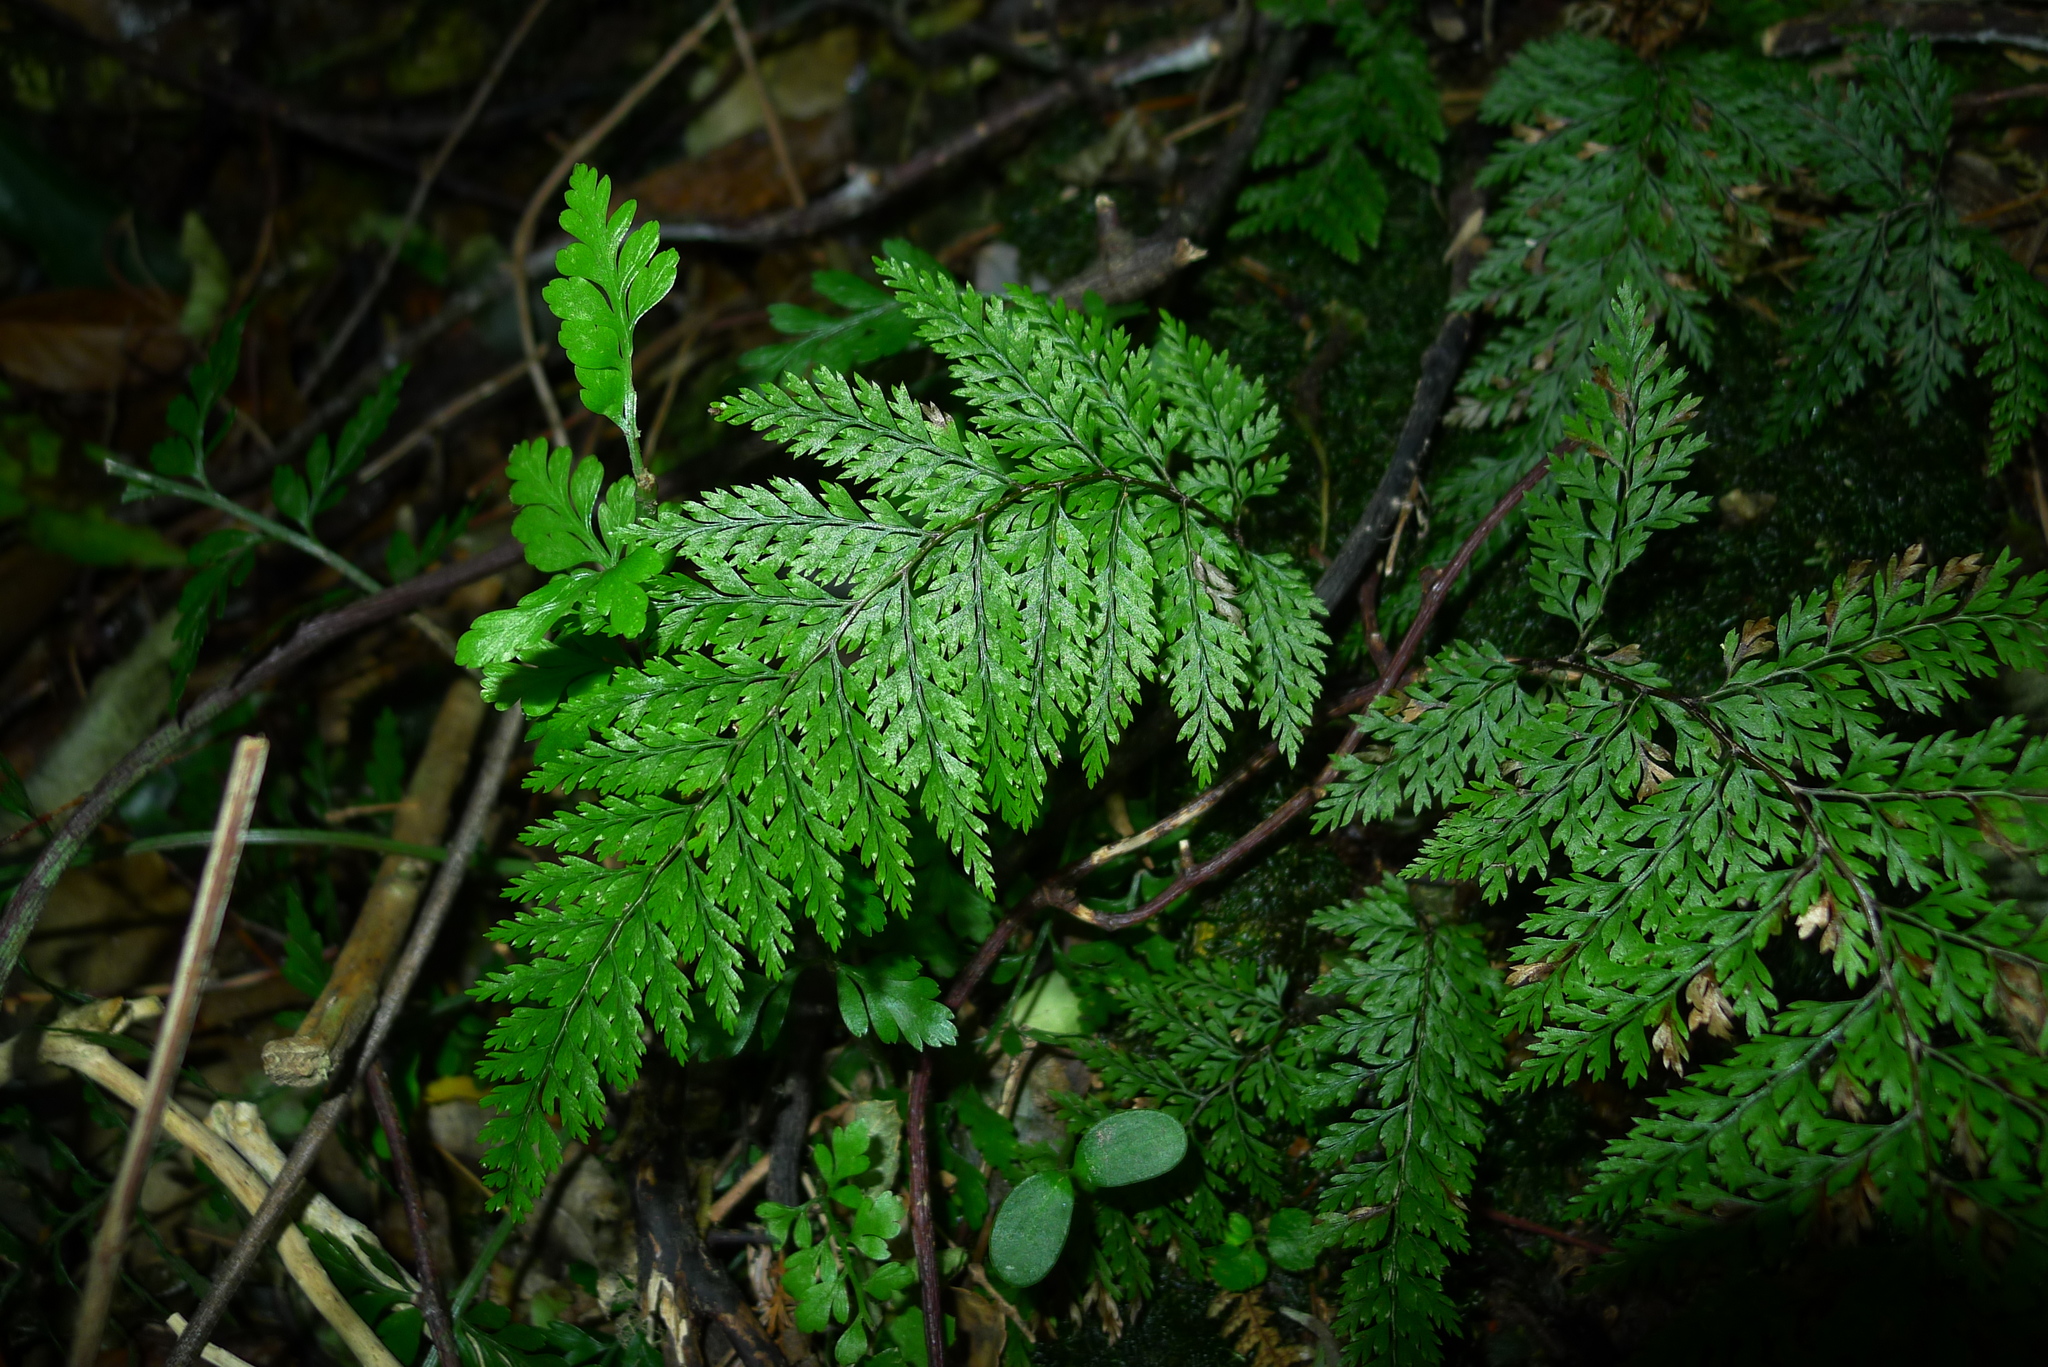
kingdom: Plantae
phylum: Tracheophyta
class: Polypodiopsida
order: Polypodiales
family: Dennstaedtiaceae
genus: Dennstaedtia
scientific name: Dennstaedtia novae-zelandiae
